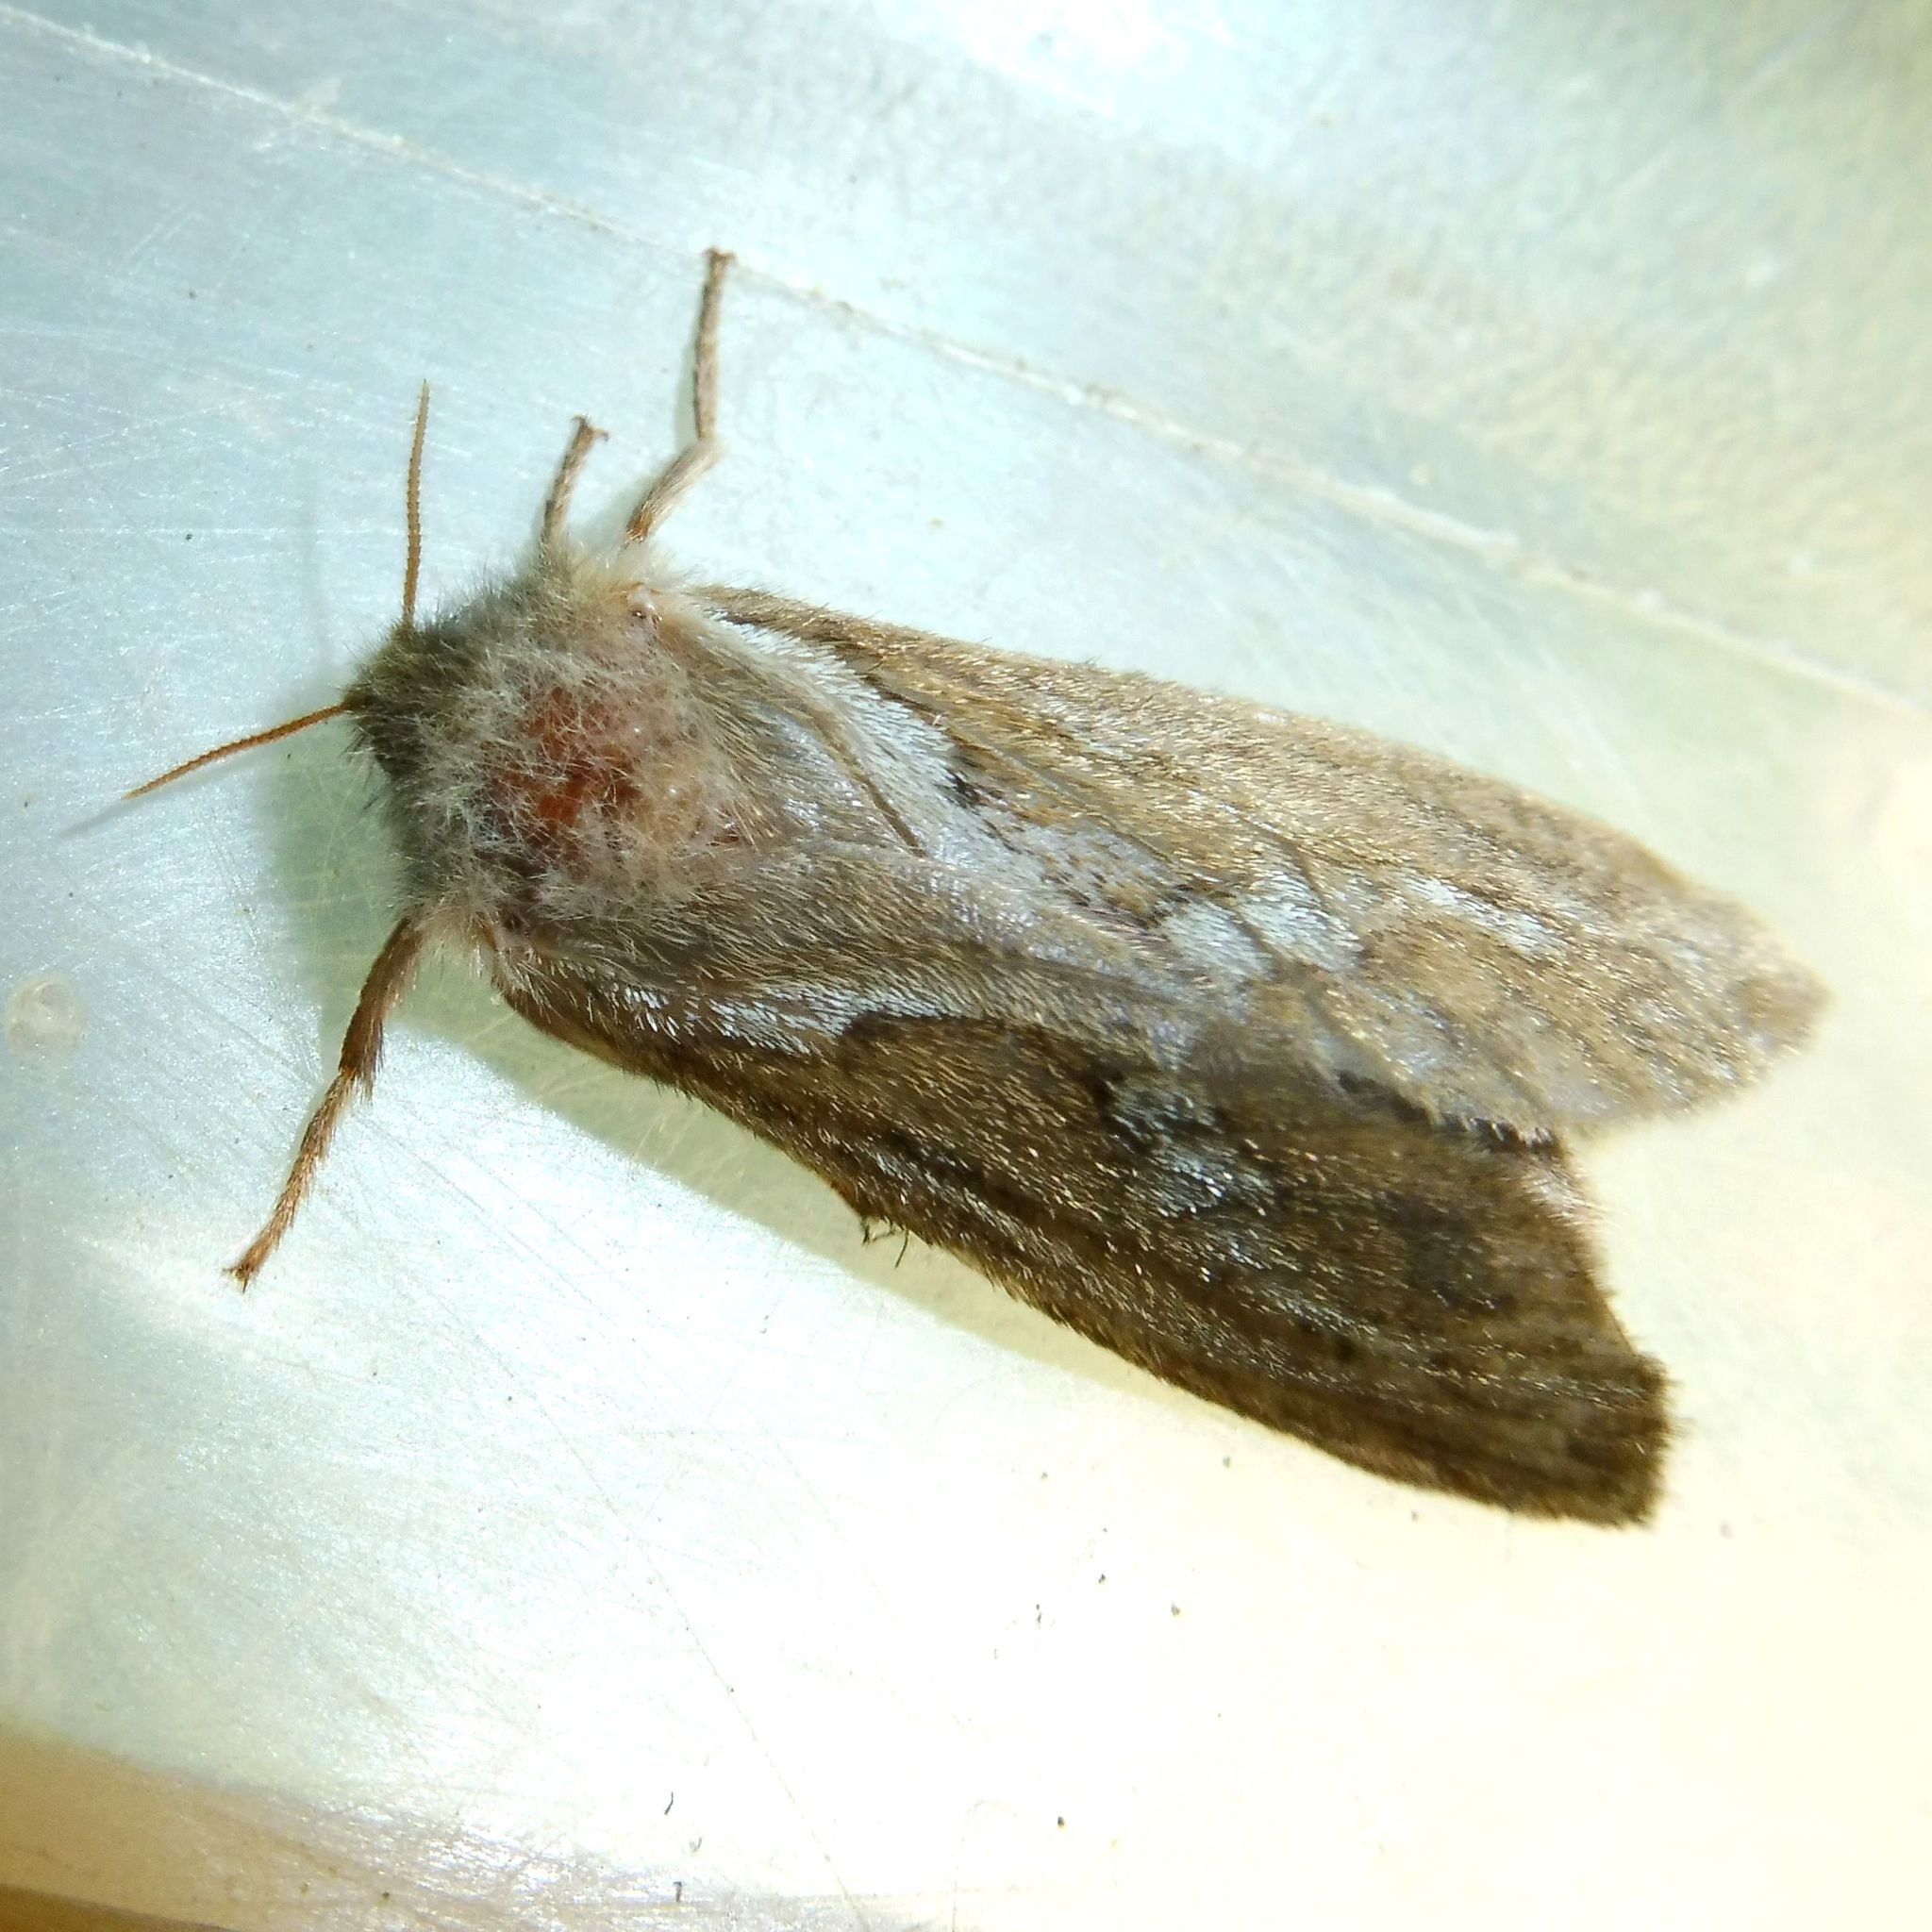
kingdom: Animalia
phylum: Arthropoda
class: Insecta
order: Lepidoptera
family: Hepialidae
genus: Korscheltellus
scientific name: Korscheltellus lupulina
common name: Common swift
